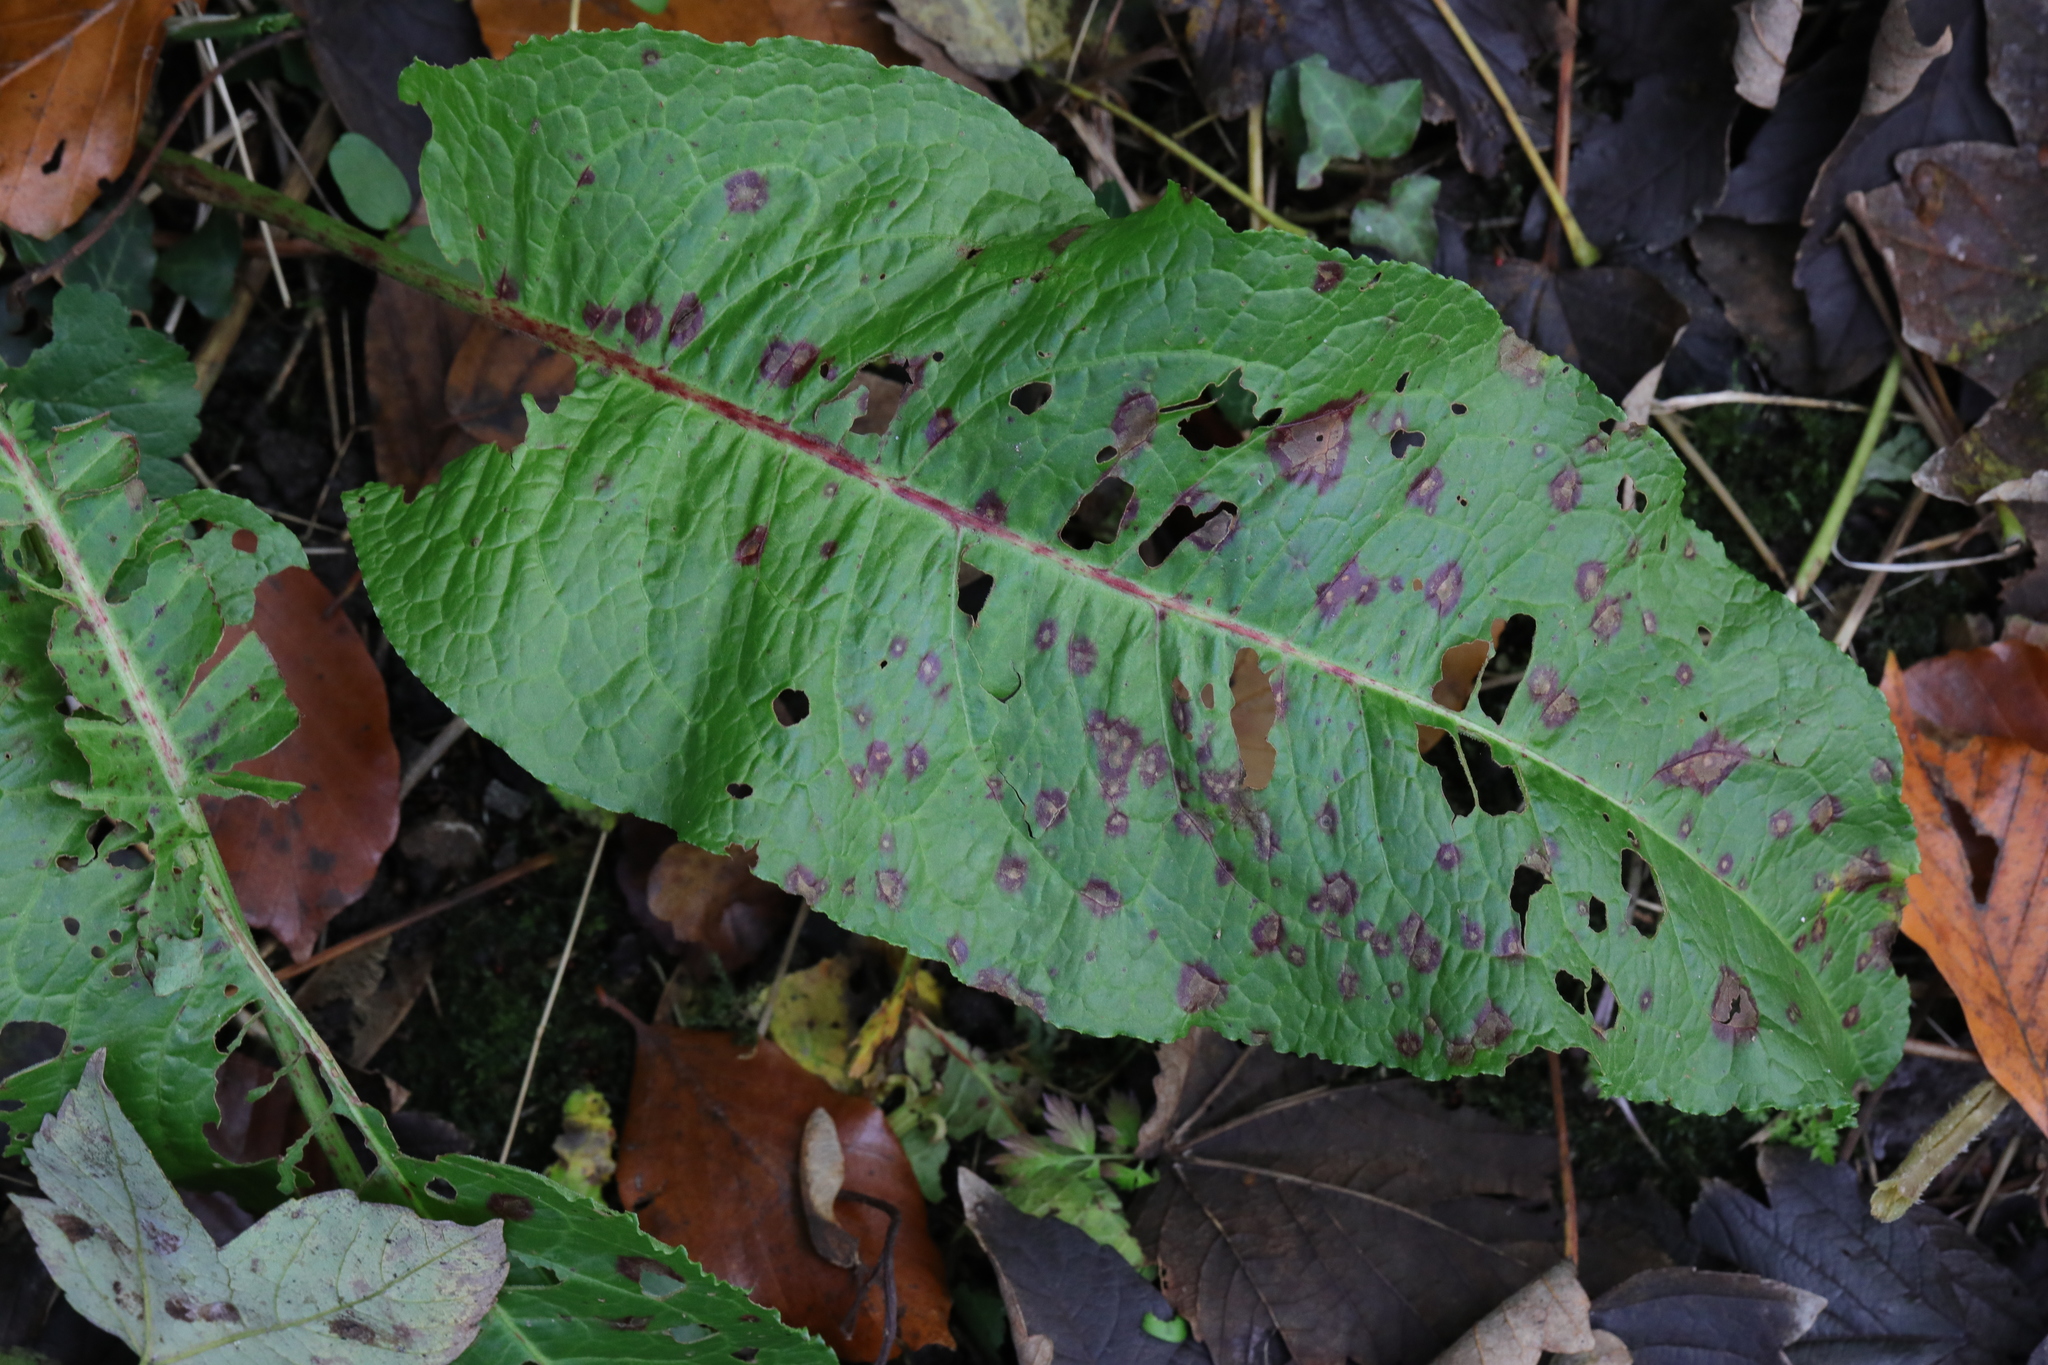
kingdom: Plantae
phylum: Tracheophyta
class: Magnoliopsida
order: Caryophyllales
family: Polygonaceae
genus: Rumex
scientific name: Rumex obtusifolius
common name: Bitter dock
